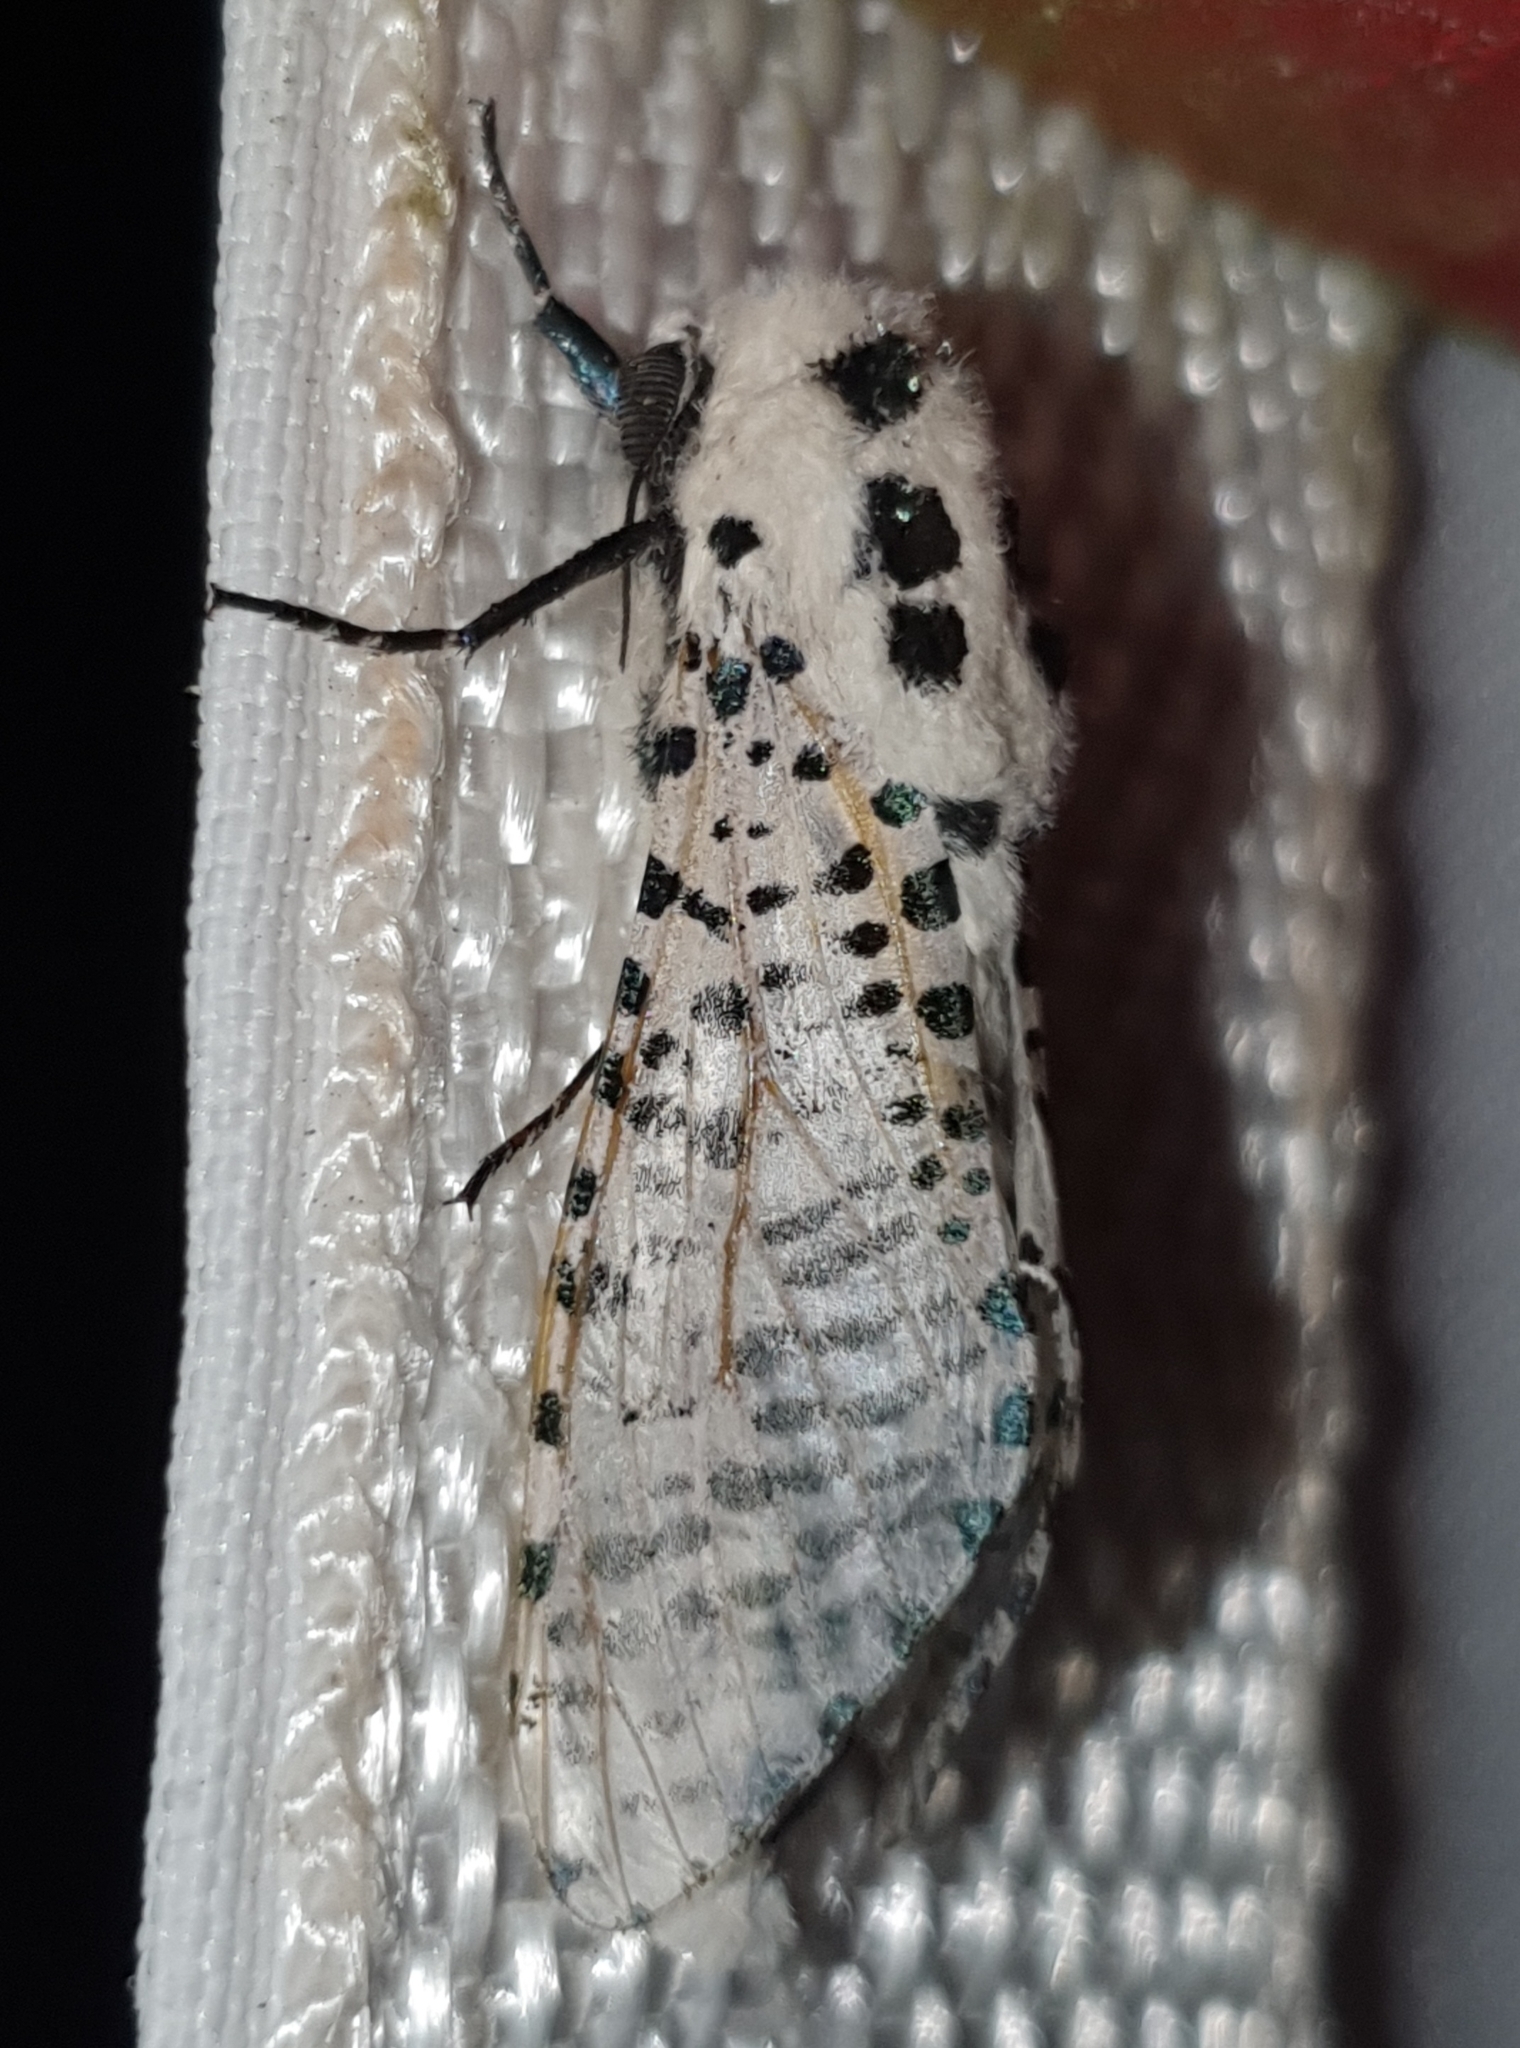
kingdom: Animalia
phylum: Arthropoda
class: Insecta
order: Lepidoptera
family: Cossidae
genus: Zeuzera
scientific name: Zeuzera pyrina
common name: Leopard moth
